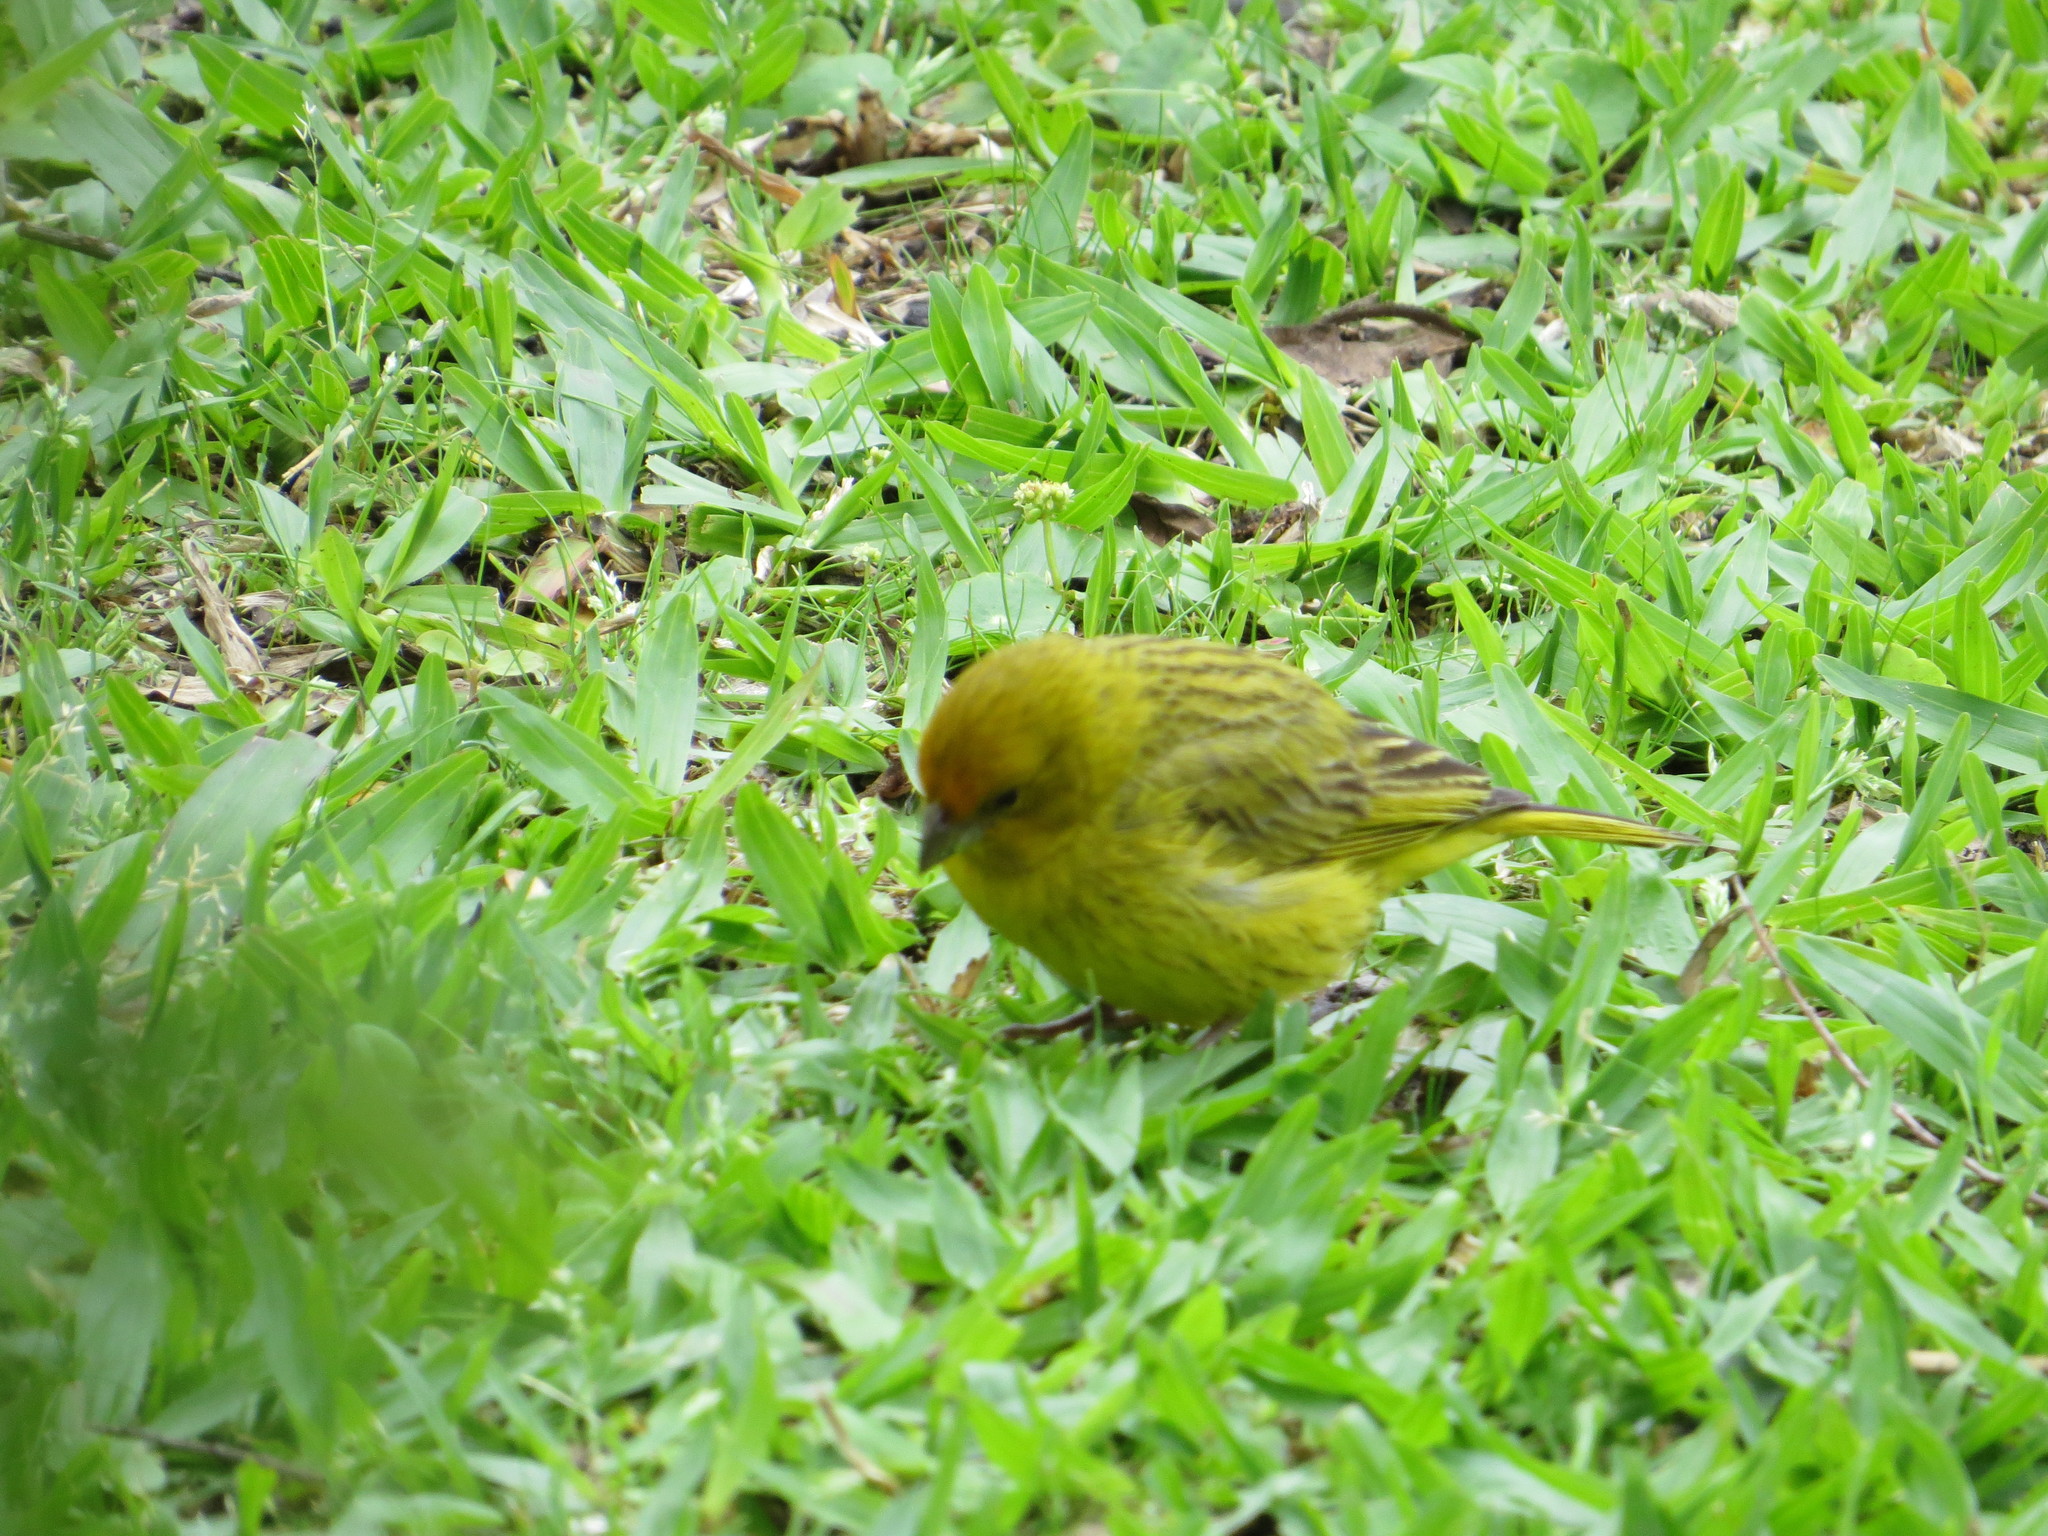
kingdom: Animalia
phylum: Chordata
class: Aves
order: Passeriformes
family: Thraupidae
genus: Sicalis
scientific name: Sicalis flaveola
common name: Saffron finch
